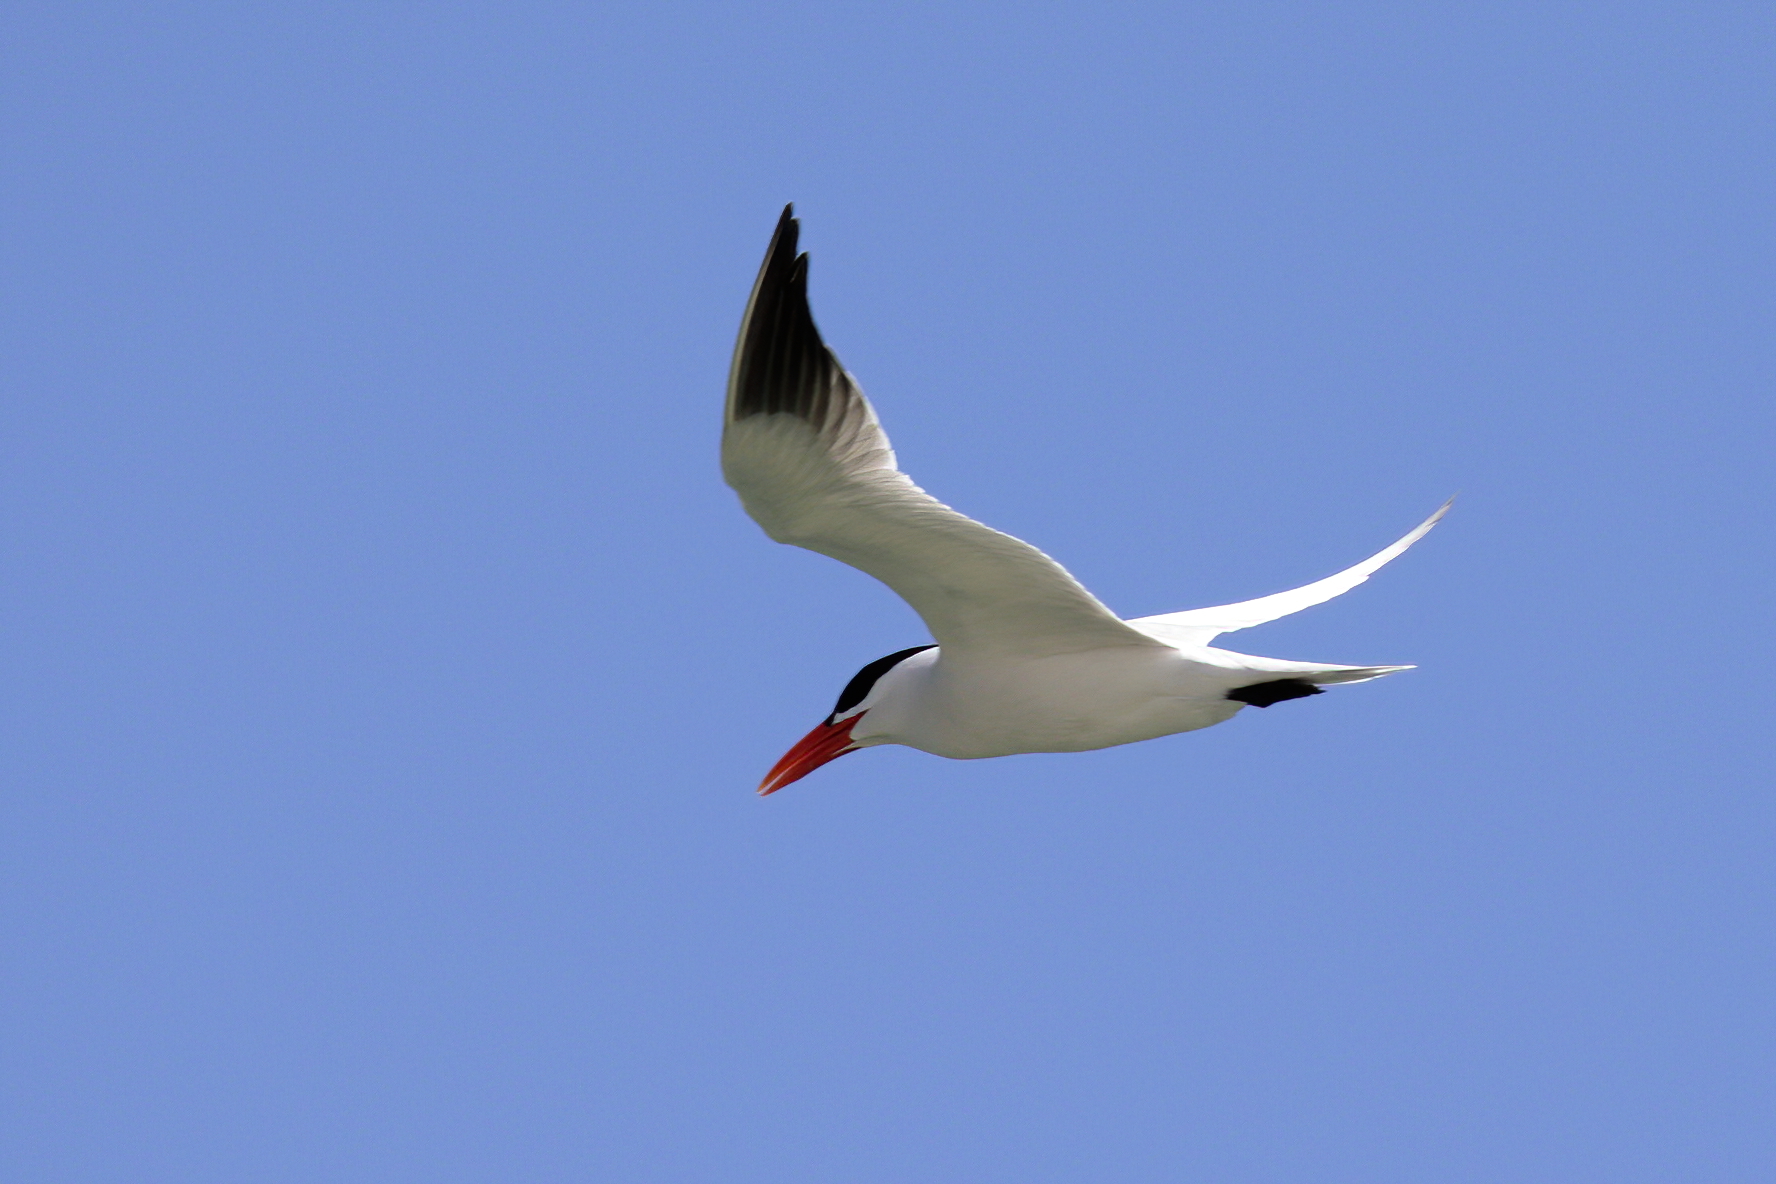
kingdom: Animalia
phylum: Chordata
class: Aves
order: Charadriiformes
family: Laridae
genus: Hydroprogne
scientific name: Hydroprogne caspia
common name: Caspian tern
